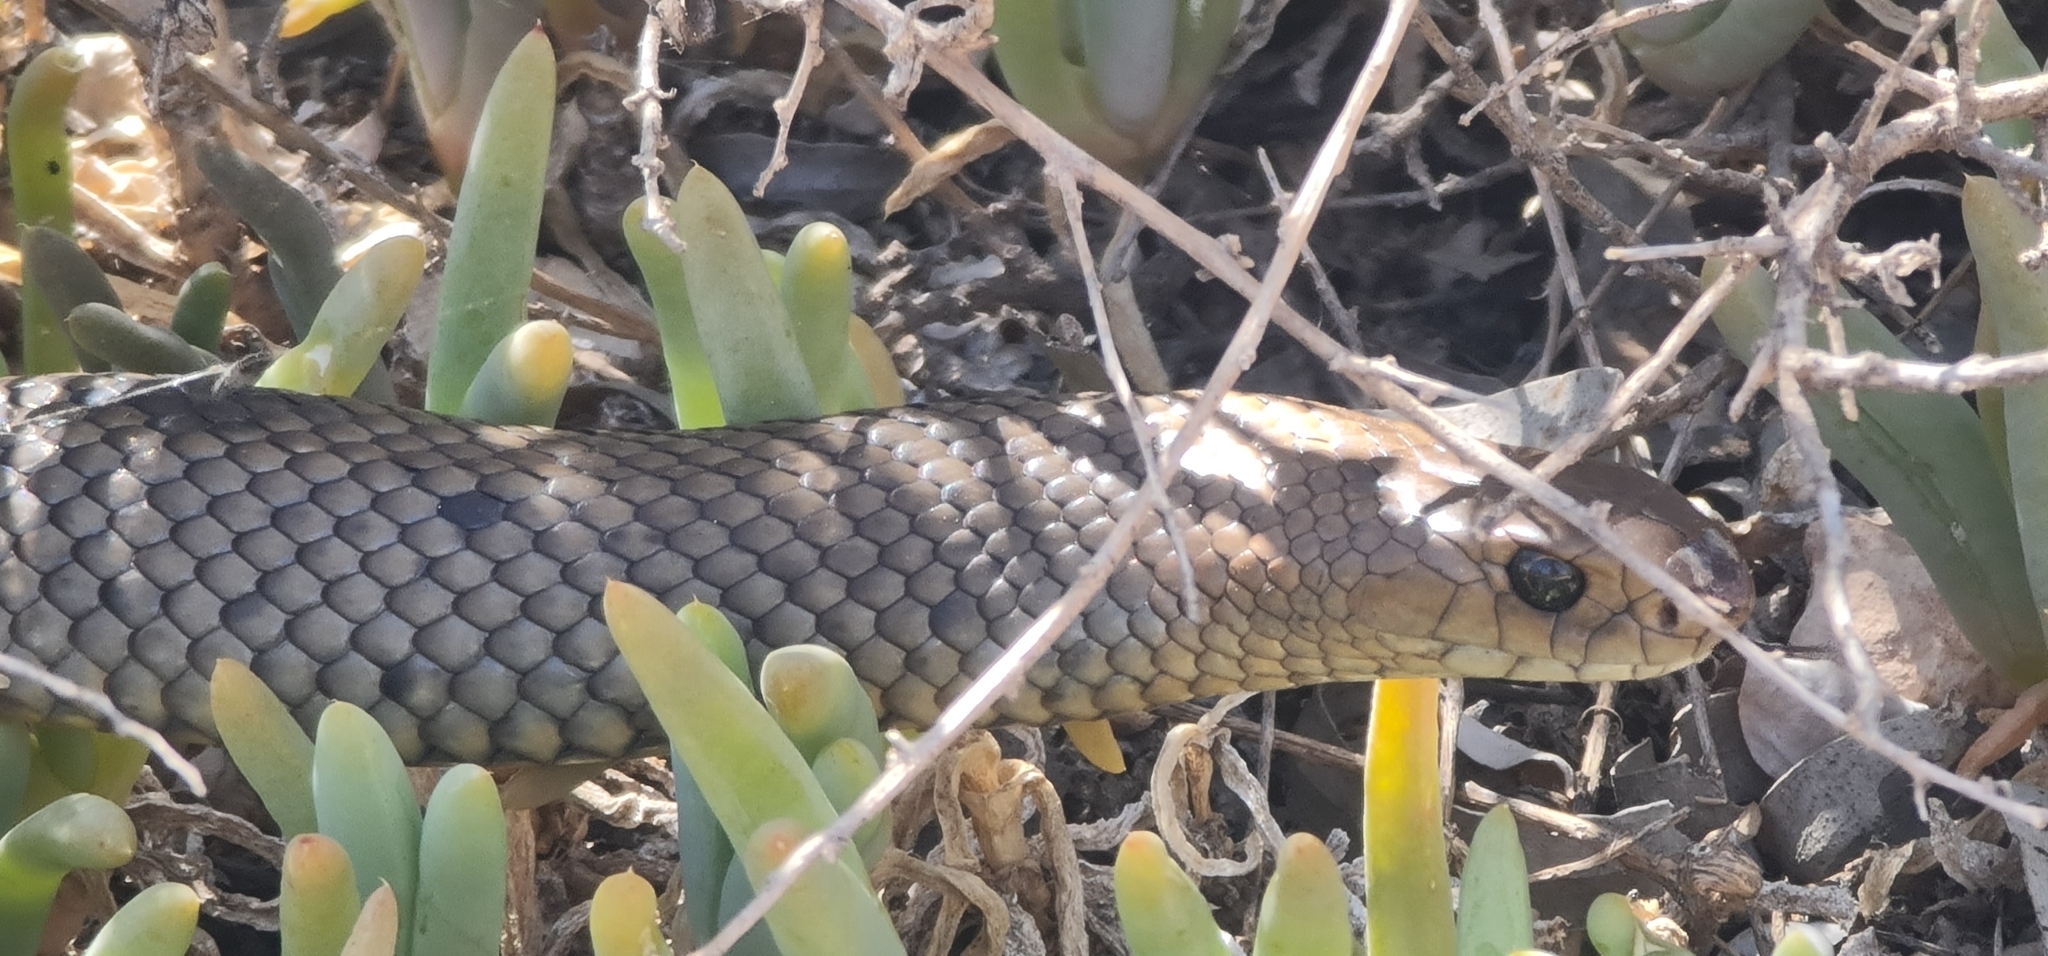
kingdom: Animalia
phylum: Chordata
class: Squamata
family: Elapidae
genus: Pseudonaja
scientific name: Pseudonaja textilis
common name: Eastern brown snake
